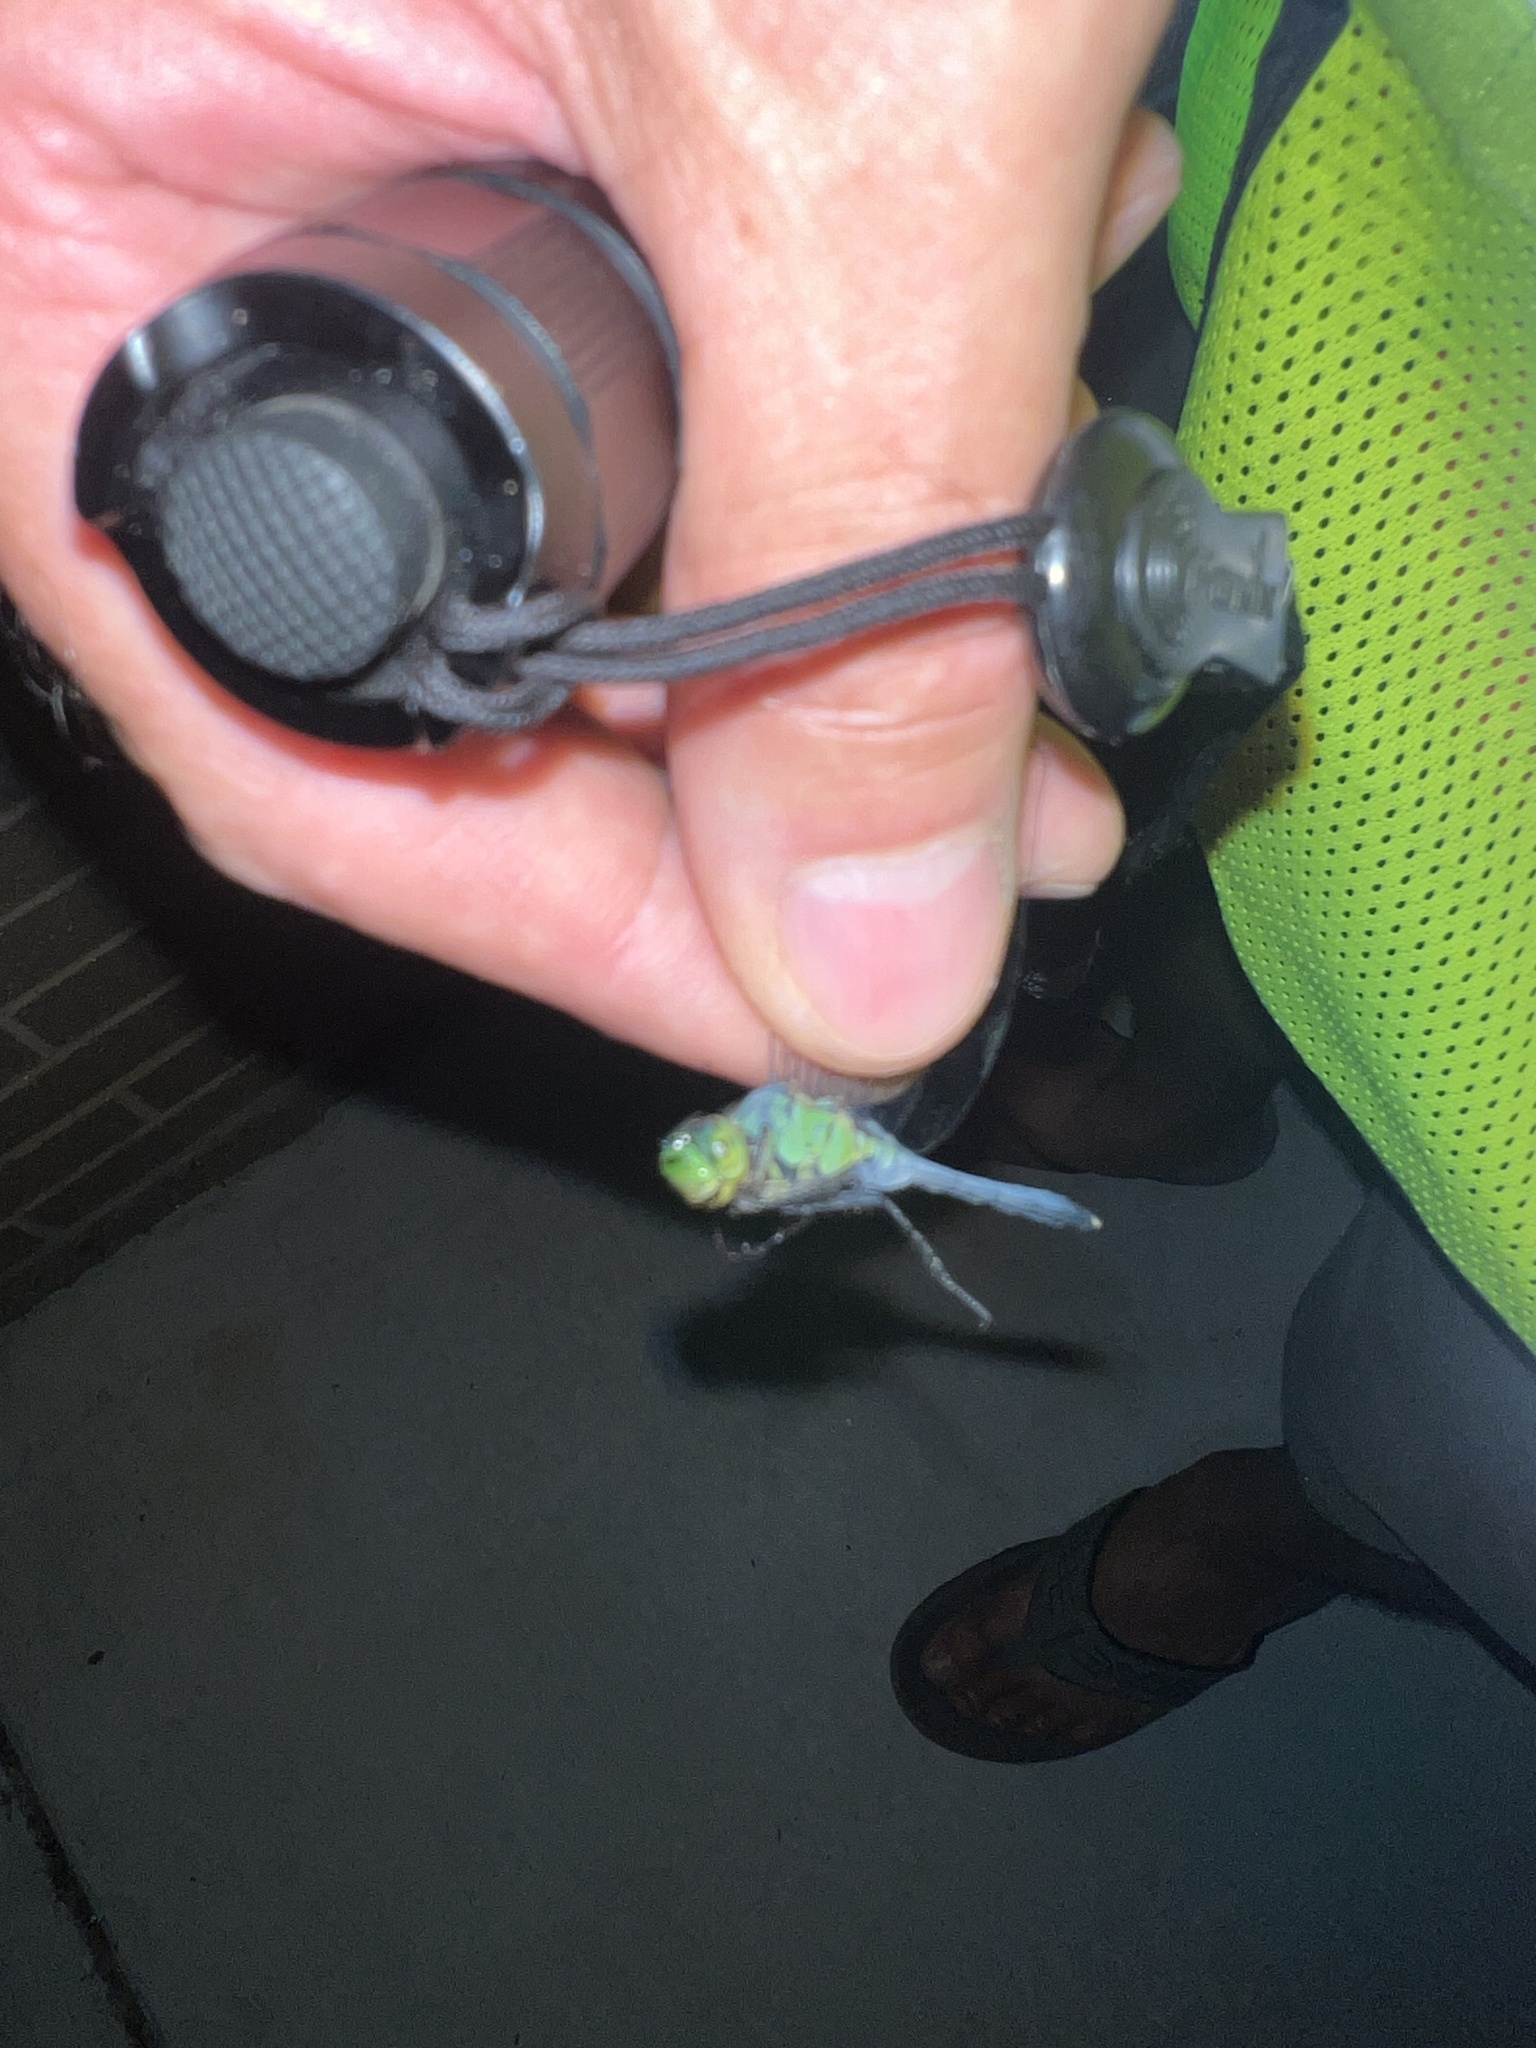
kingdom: Animalia
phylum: Arthropoda
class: Insecta
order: Odonata
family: Libellulidae
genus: Erythemis
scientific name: Erythemis simplicicollis
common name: Eastern pondhawk
